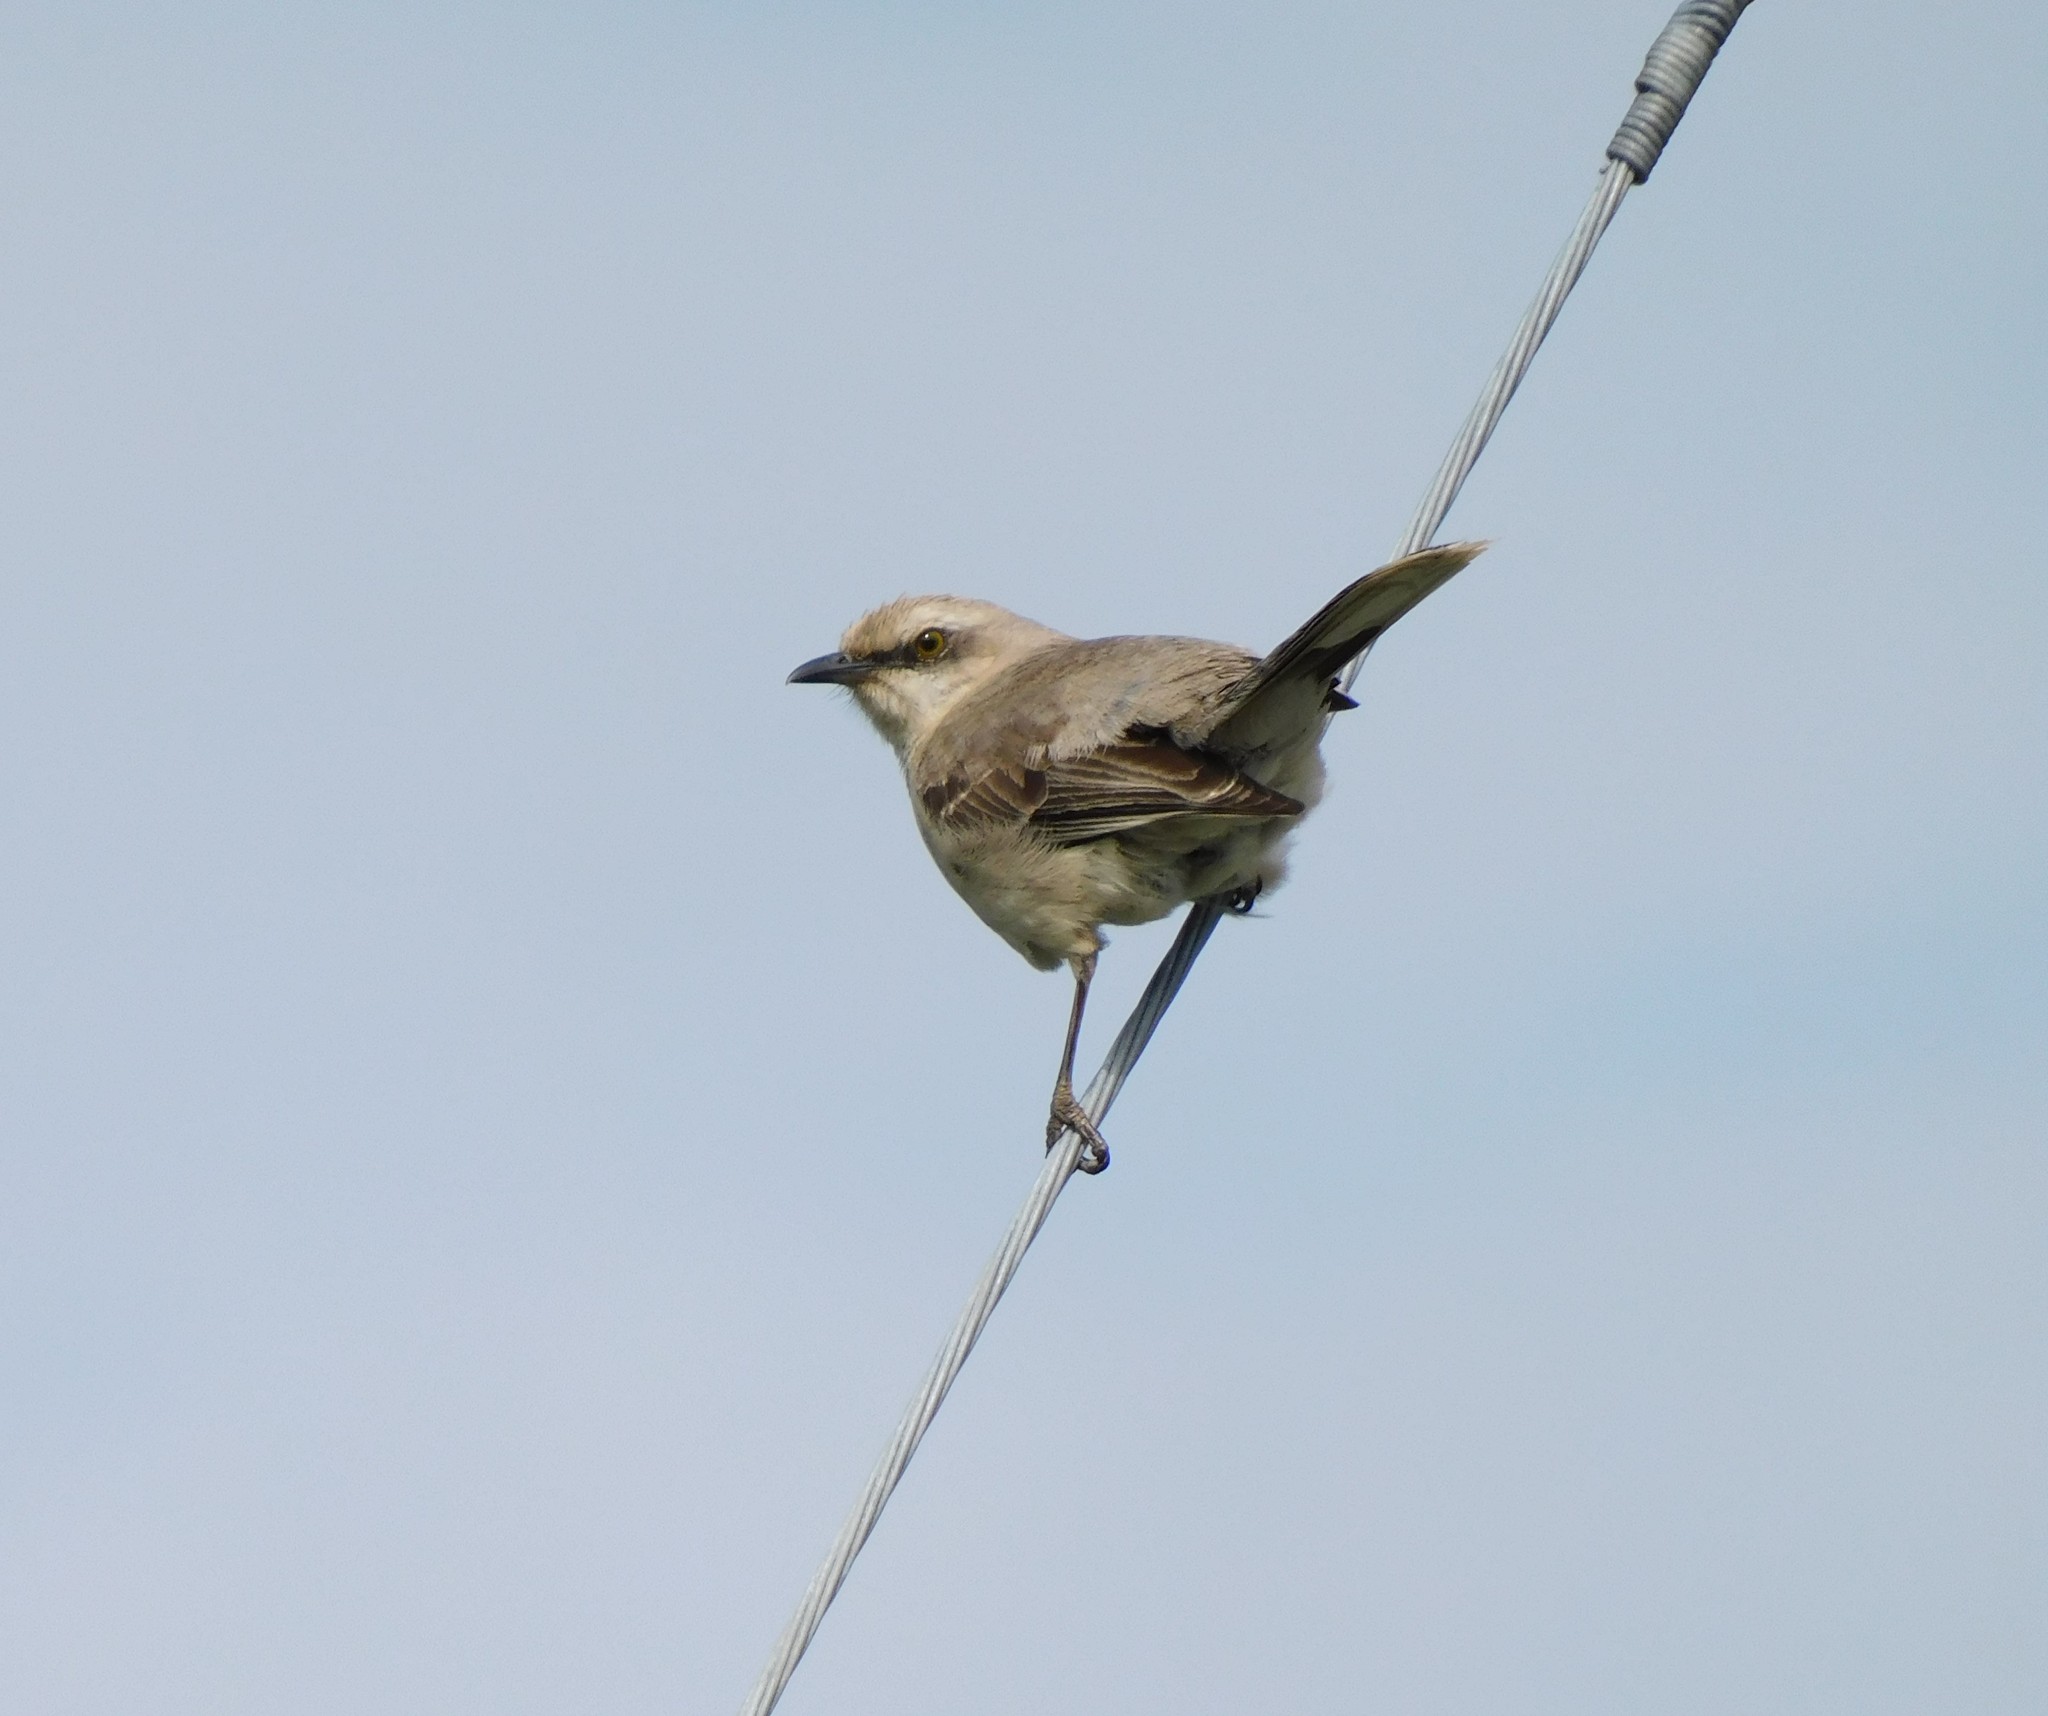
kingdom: Animalia
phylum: Chordata
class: Aves
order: Passeriformes
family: Mimidae
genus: Mimus
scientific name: Mimus gilvus
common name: Tropical mockingbird
